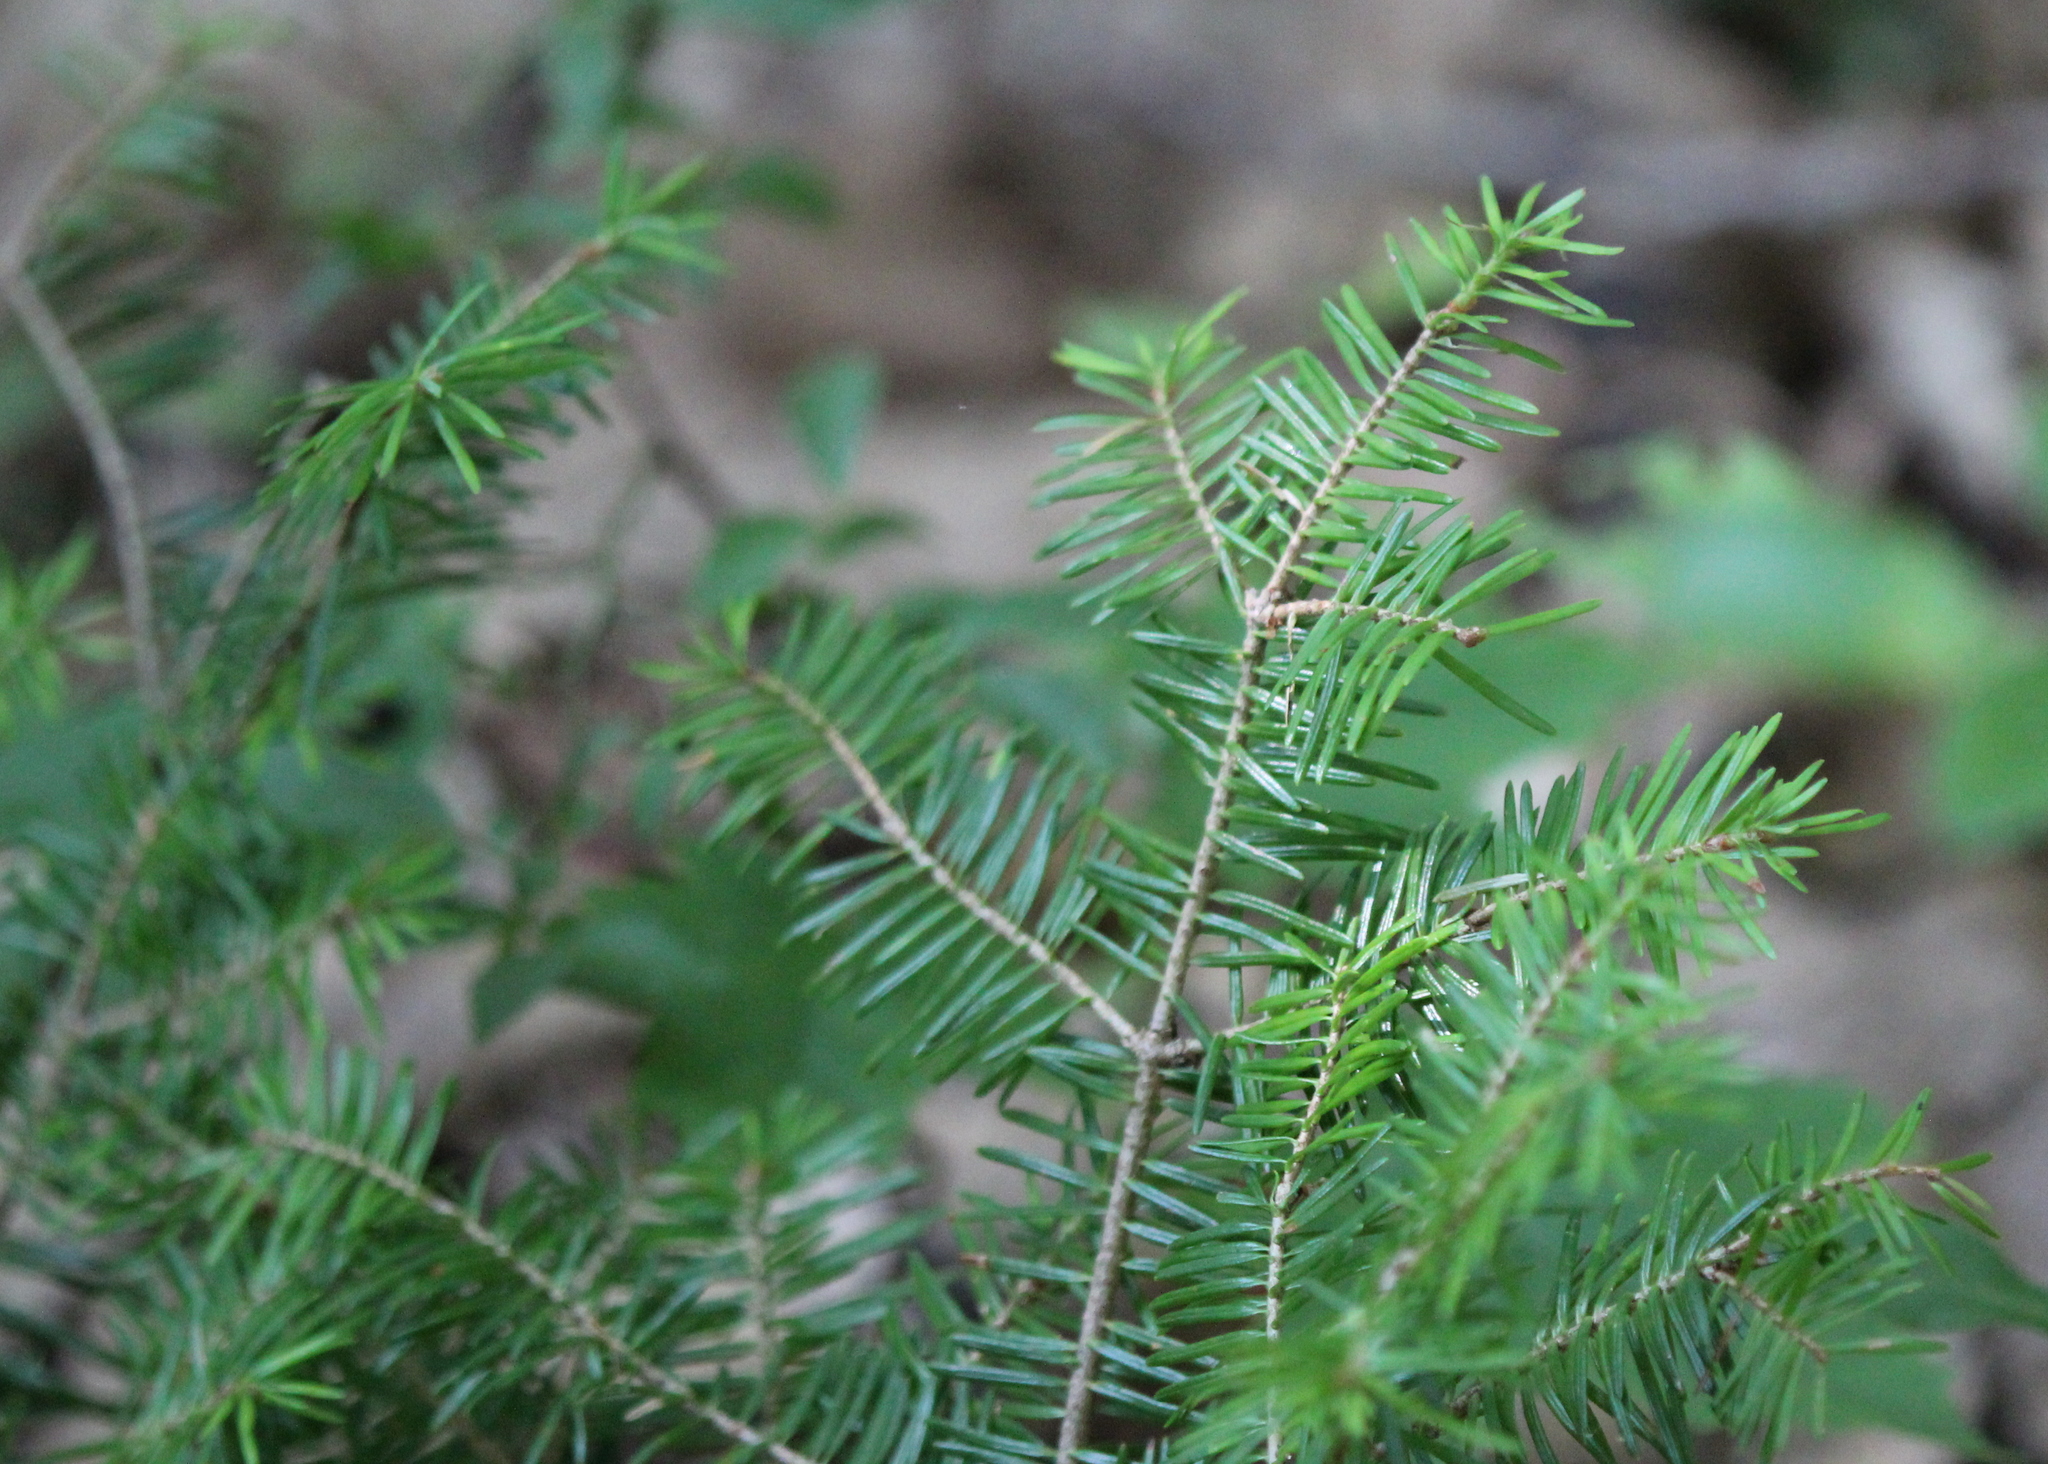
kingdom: Plantae
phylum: Tracheophyta
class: Pinopsida
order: Pinales
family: Pinaceae
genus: Abies
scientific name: Abies balsamea
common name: Balsam fir
